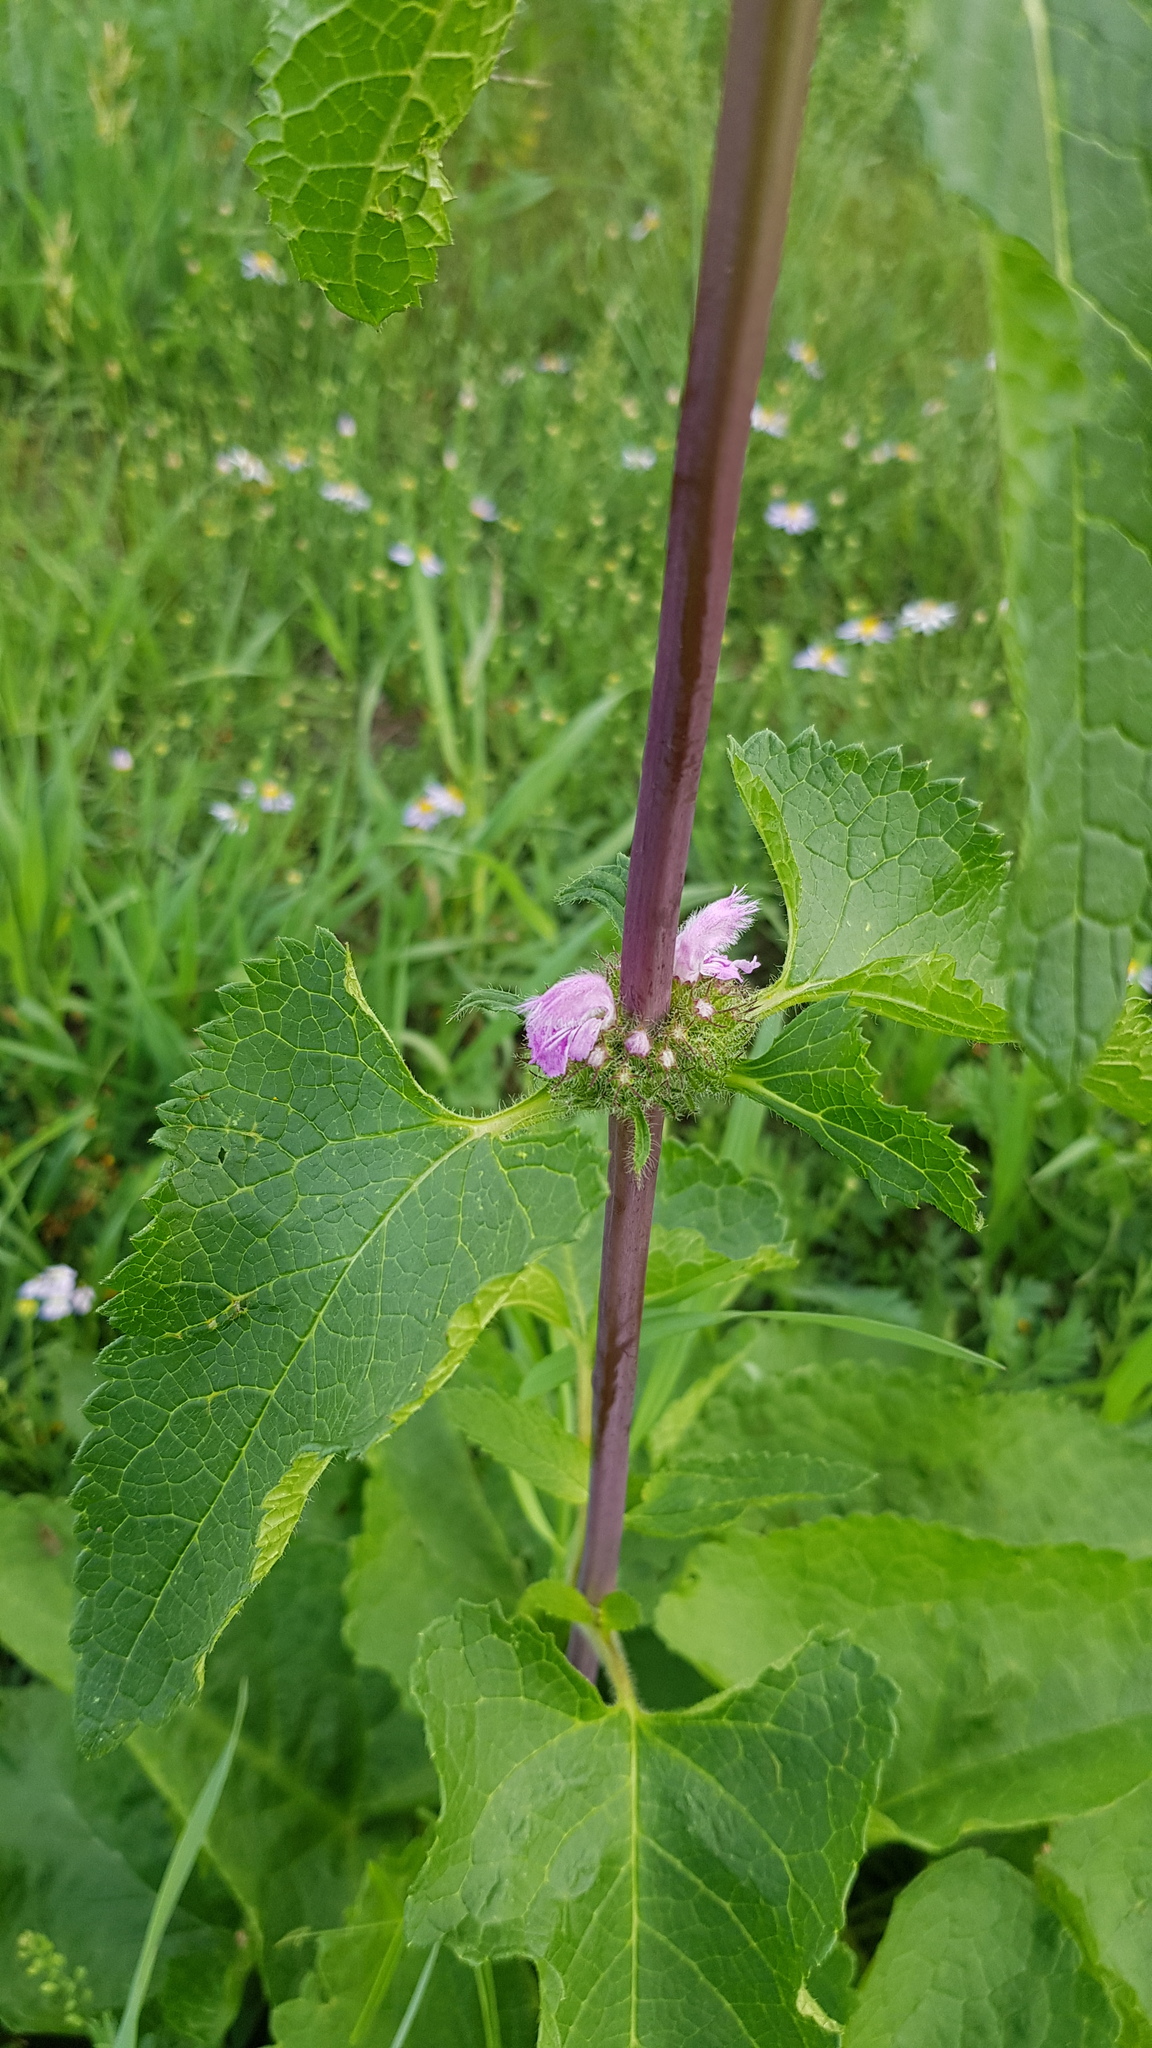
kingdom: Plantae
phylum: Tracheophyta
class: Magnoliopsida
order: Lamiales
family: Lamiaceae
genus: Phlomoides
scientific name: Phlomoides tuberosa
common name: Tuberous jerusalem sage
